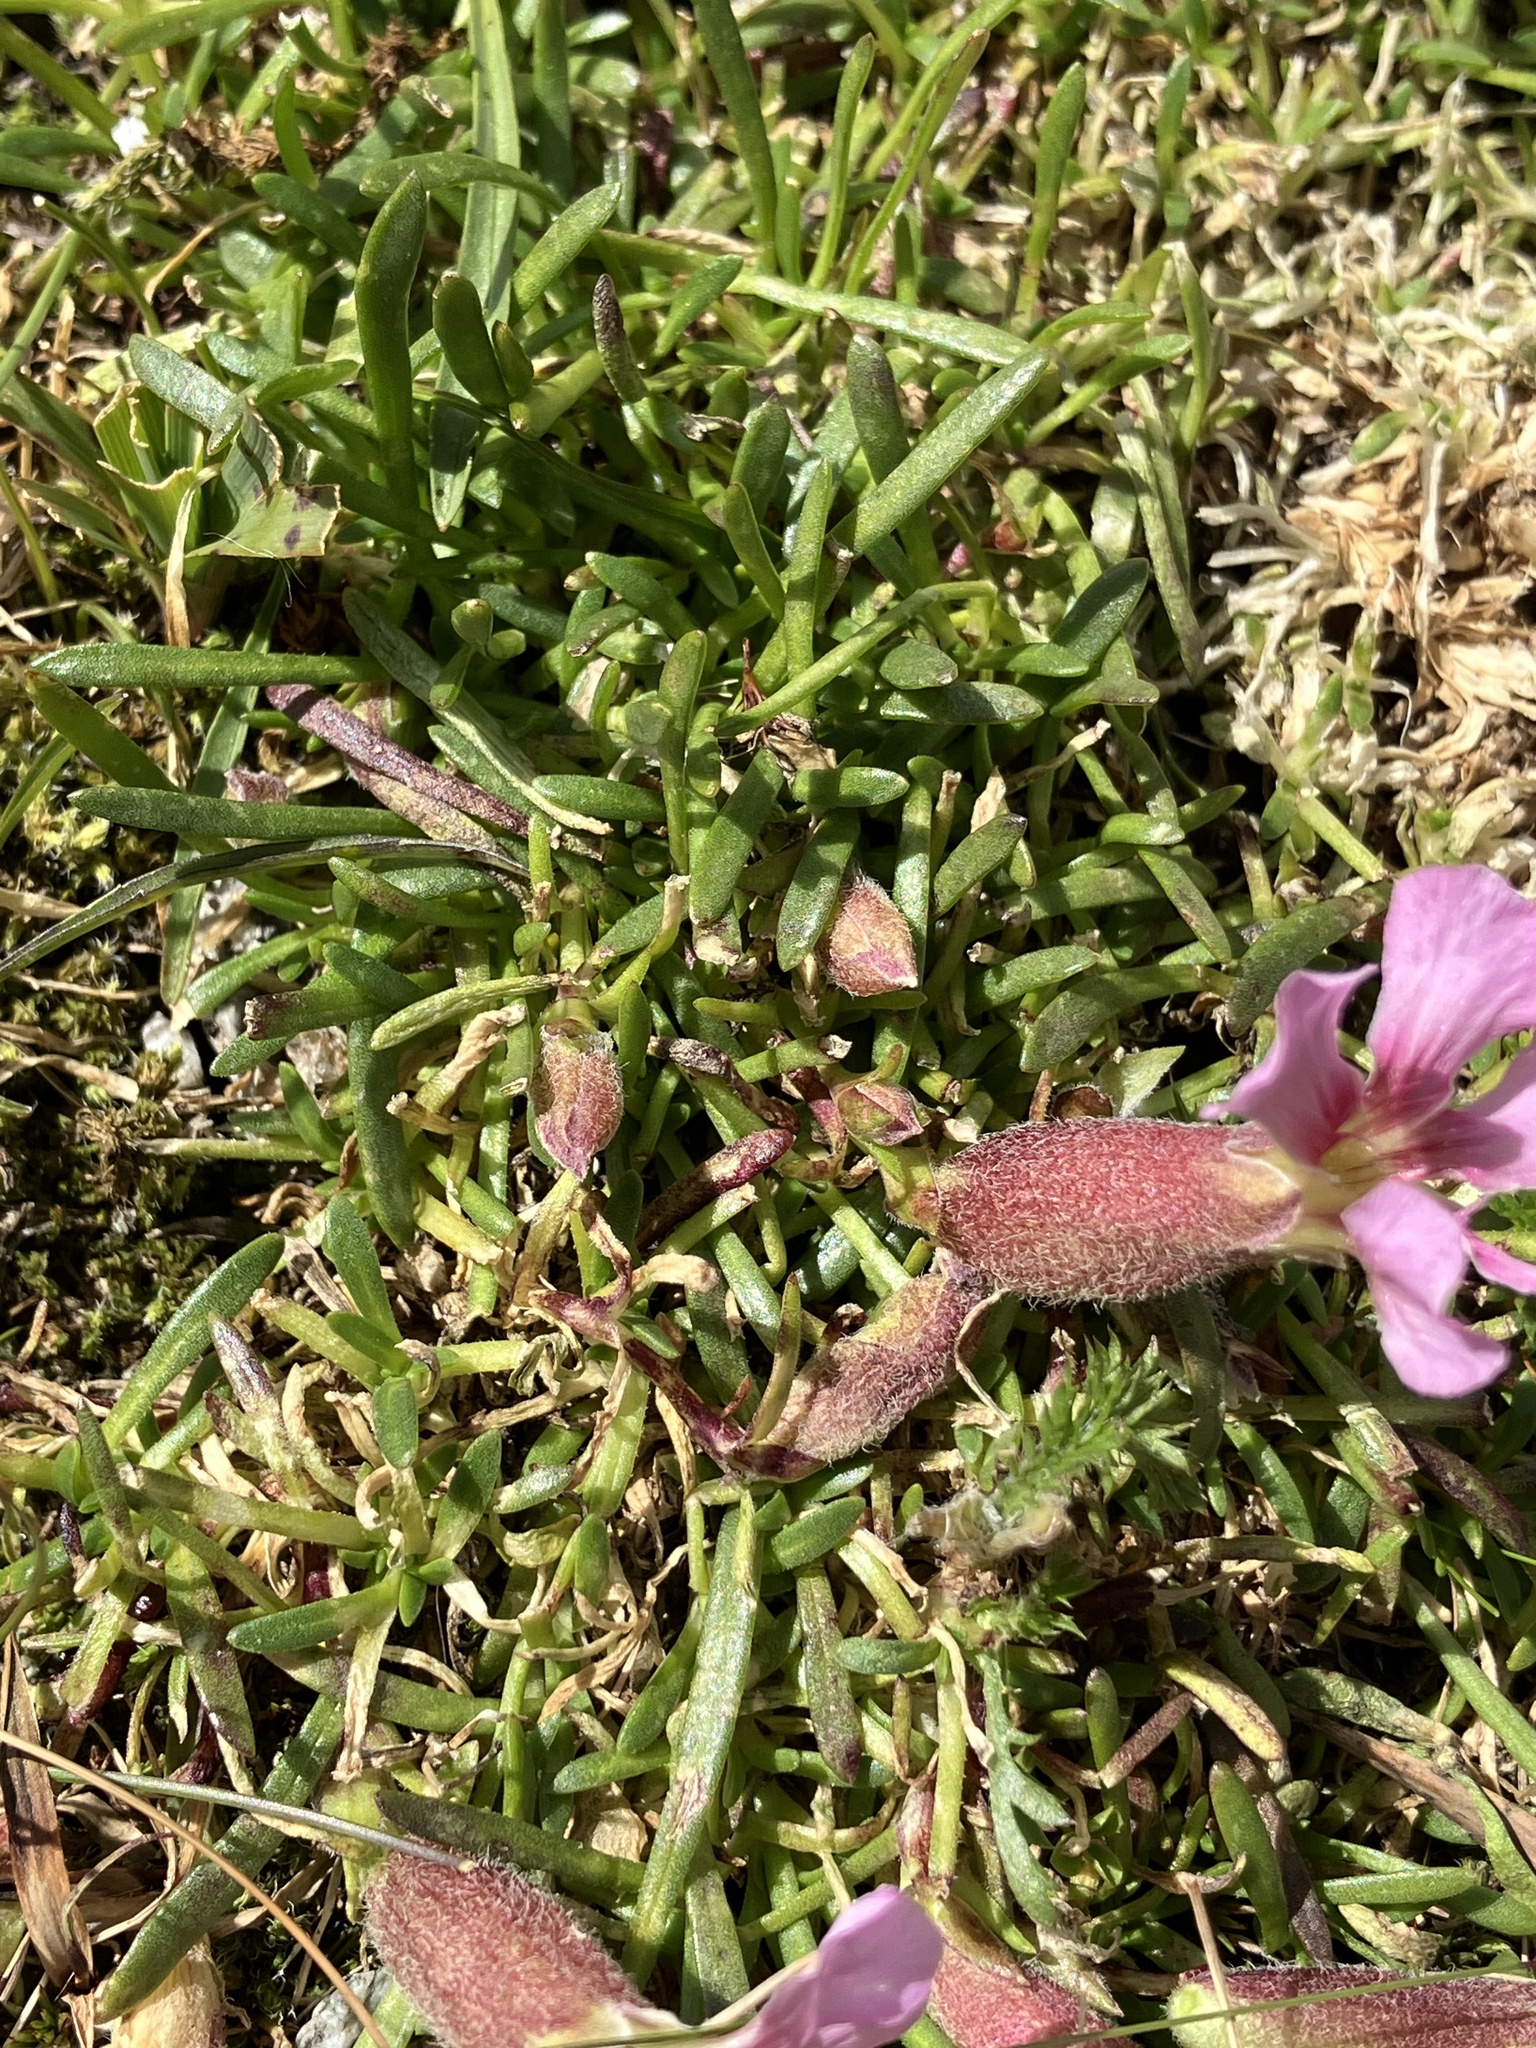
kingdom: Plantae
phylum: Tracheophyta
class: Magnoliopsida
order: Caryophyllales
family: Caryophyllaceae
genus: Saponaria
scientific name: Saponaria pumila
